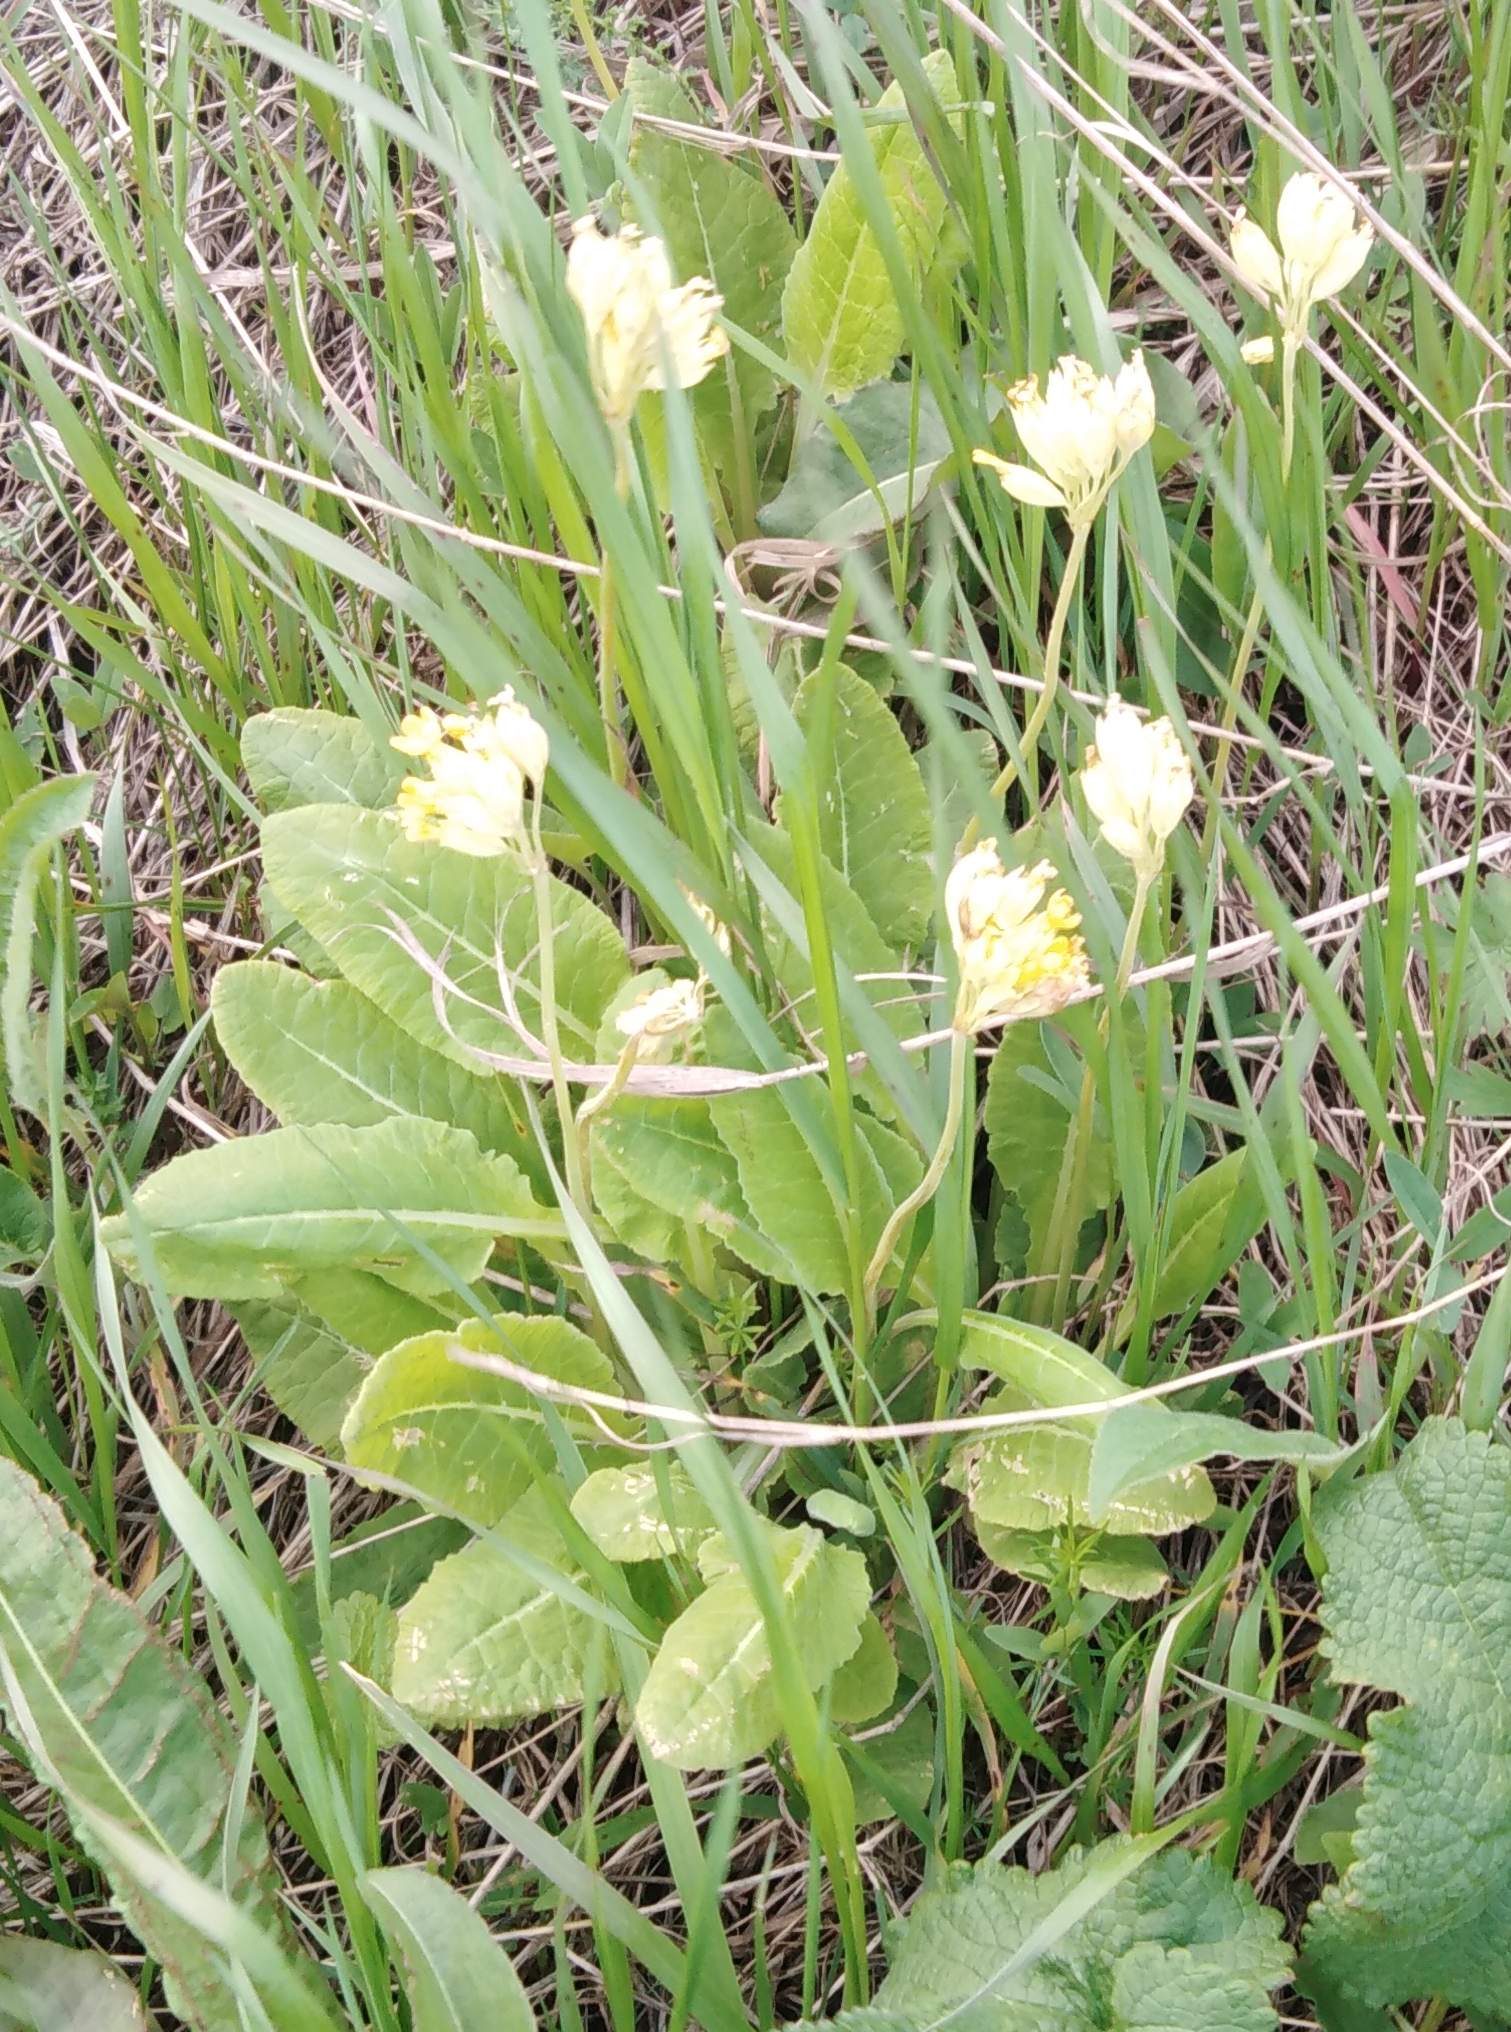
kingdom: Plantae
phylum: Tracheophyta
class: Magnoliopsida
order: Ericales
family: Primulaceae
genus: Primula
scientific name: Primula veris
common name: Cowslip
